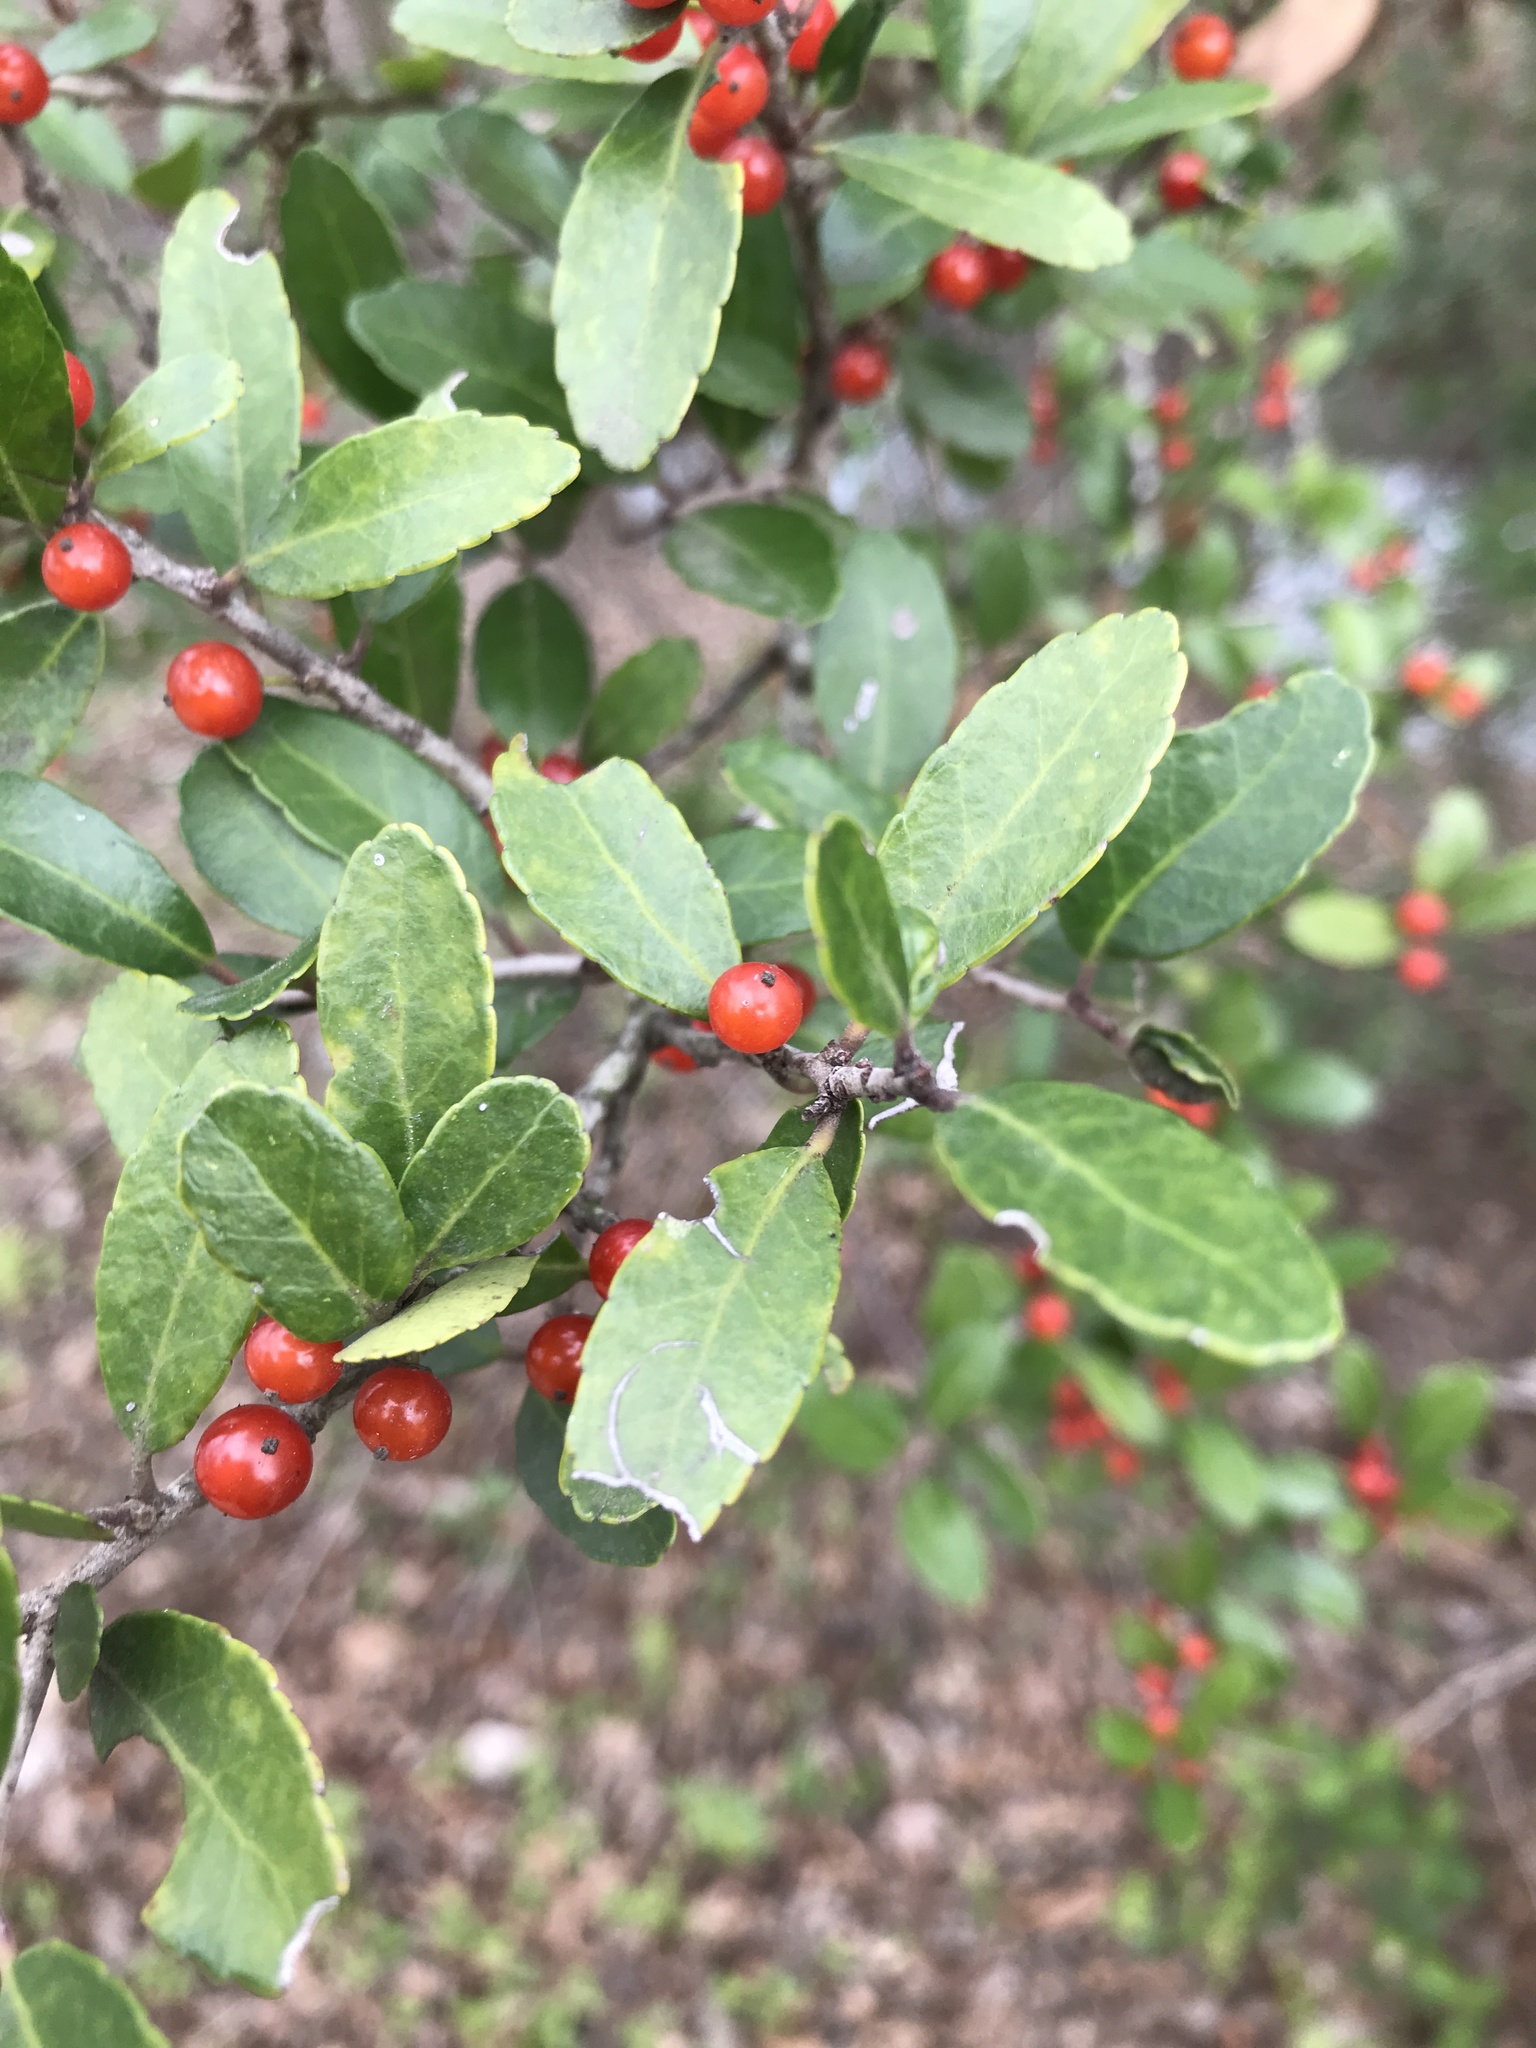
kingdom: Plantae
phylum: Tracheophyta
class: Magnoliopsida
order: Aquifoliales
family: Aquifoliaceae
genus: Ilex
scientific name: Ilex vomitoria
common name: Yaupon holly
